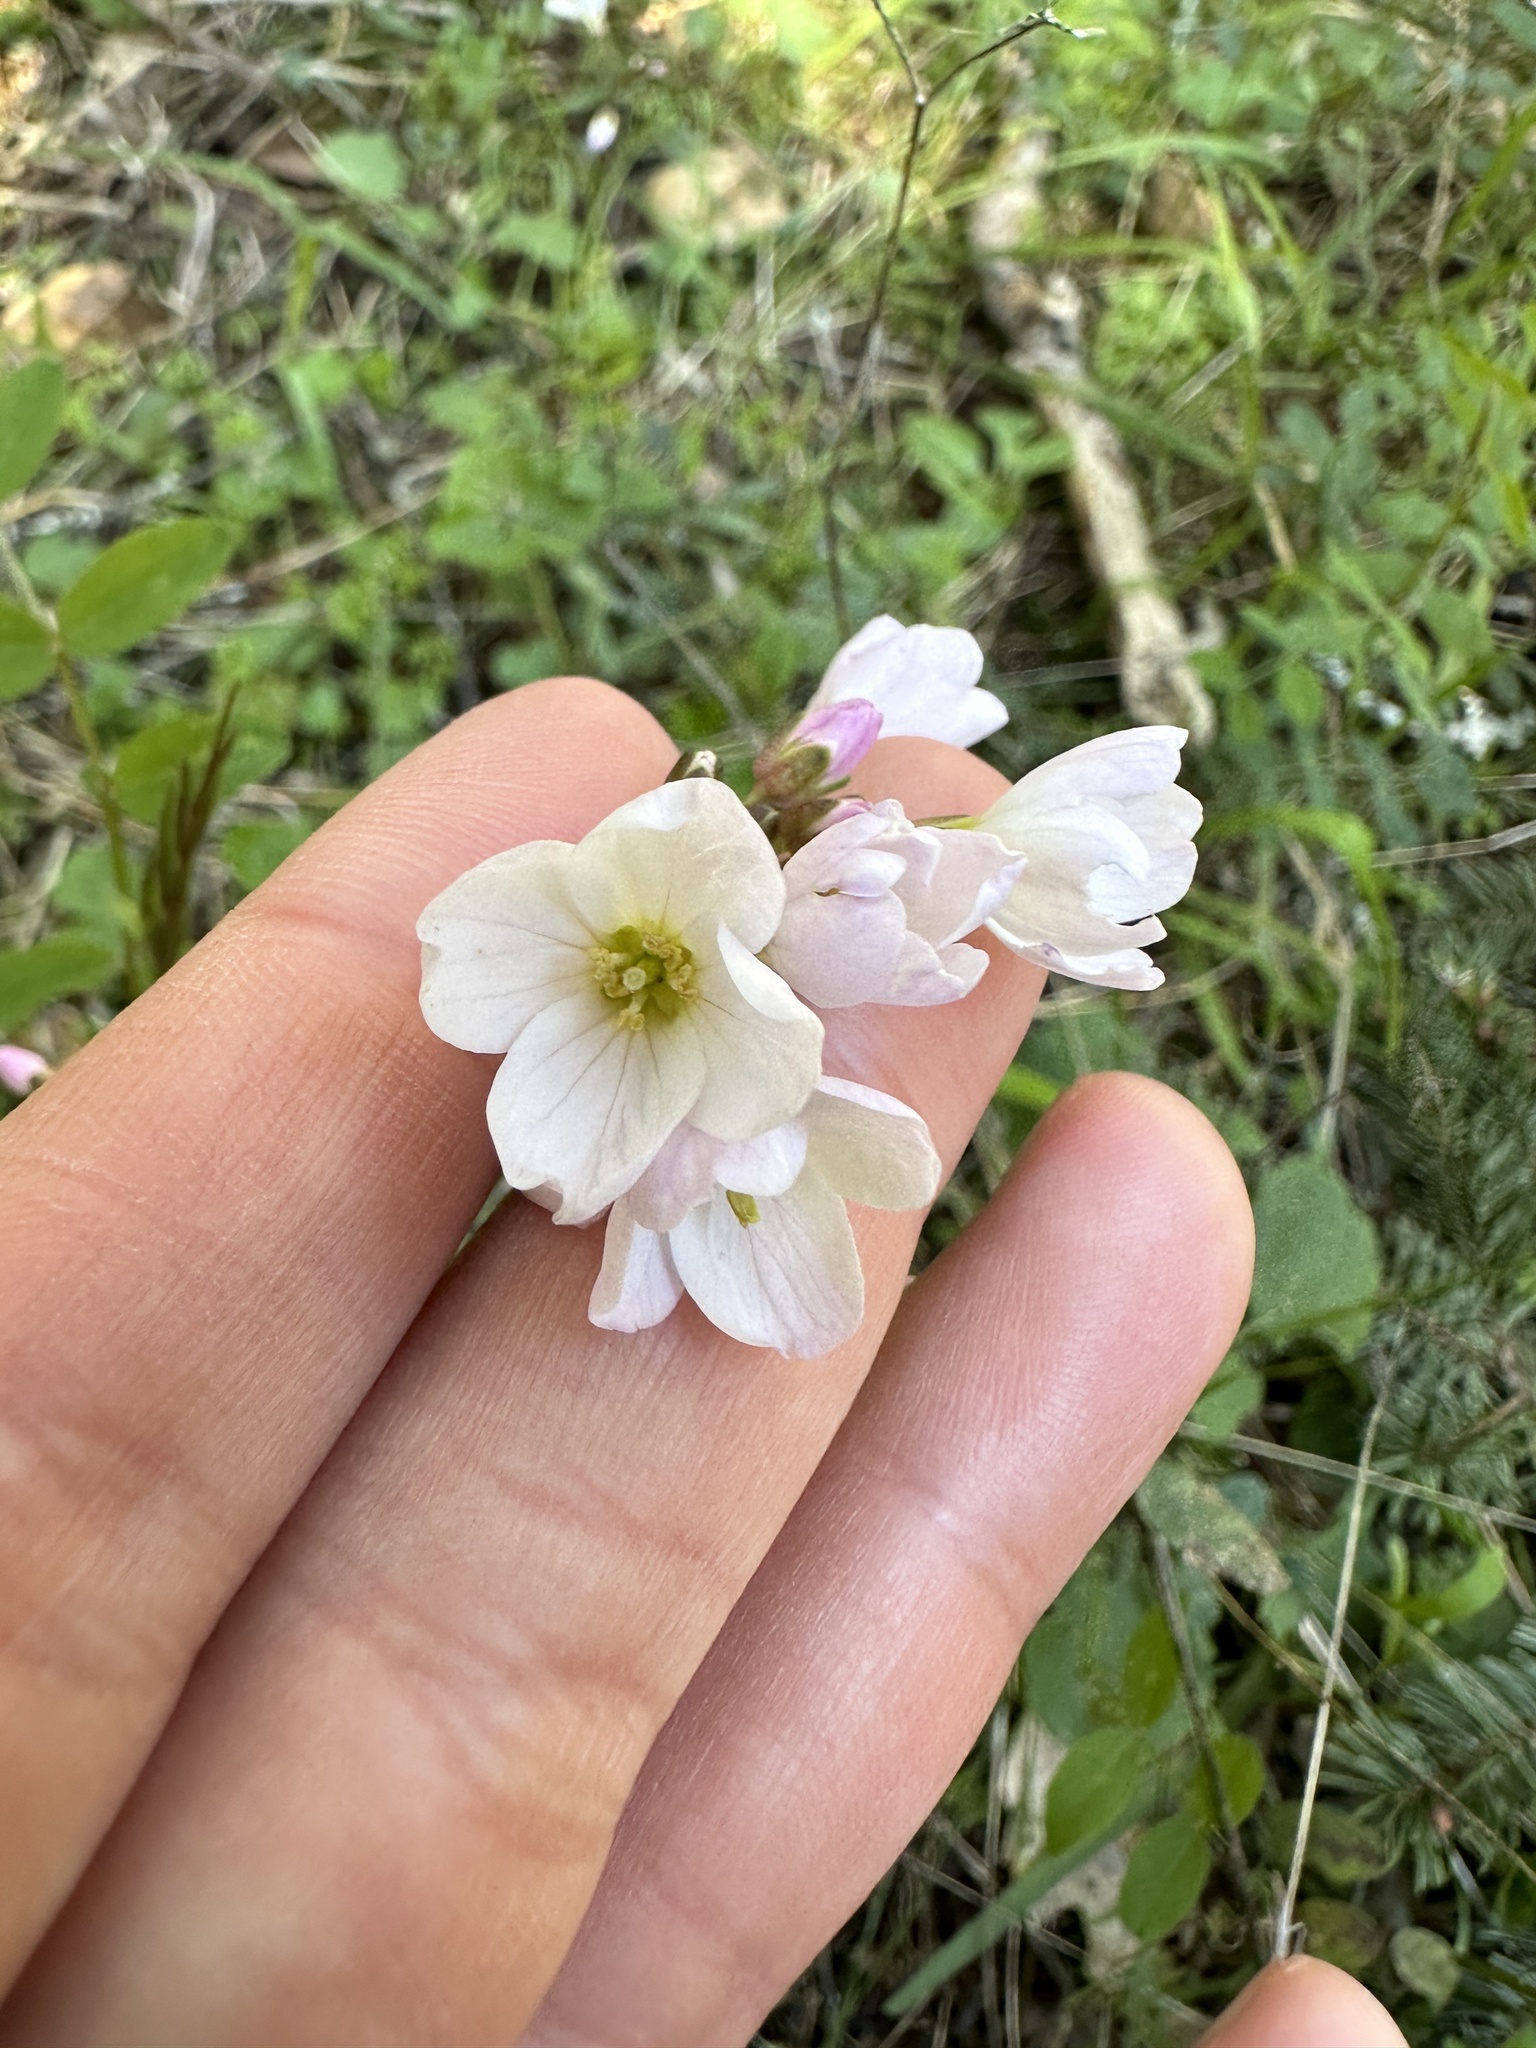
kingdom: Plantae
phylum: Tracheophyta
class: Magnoliopsida
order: Brassicales
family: Brassicaceae
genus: Cardamine
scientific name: Cardamine californica
